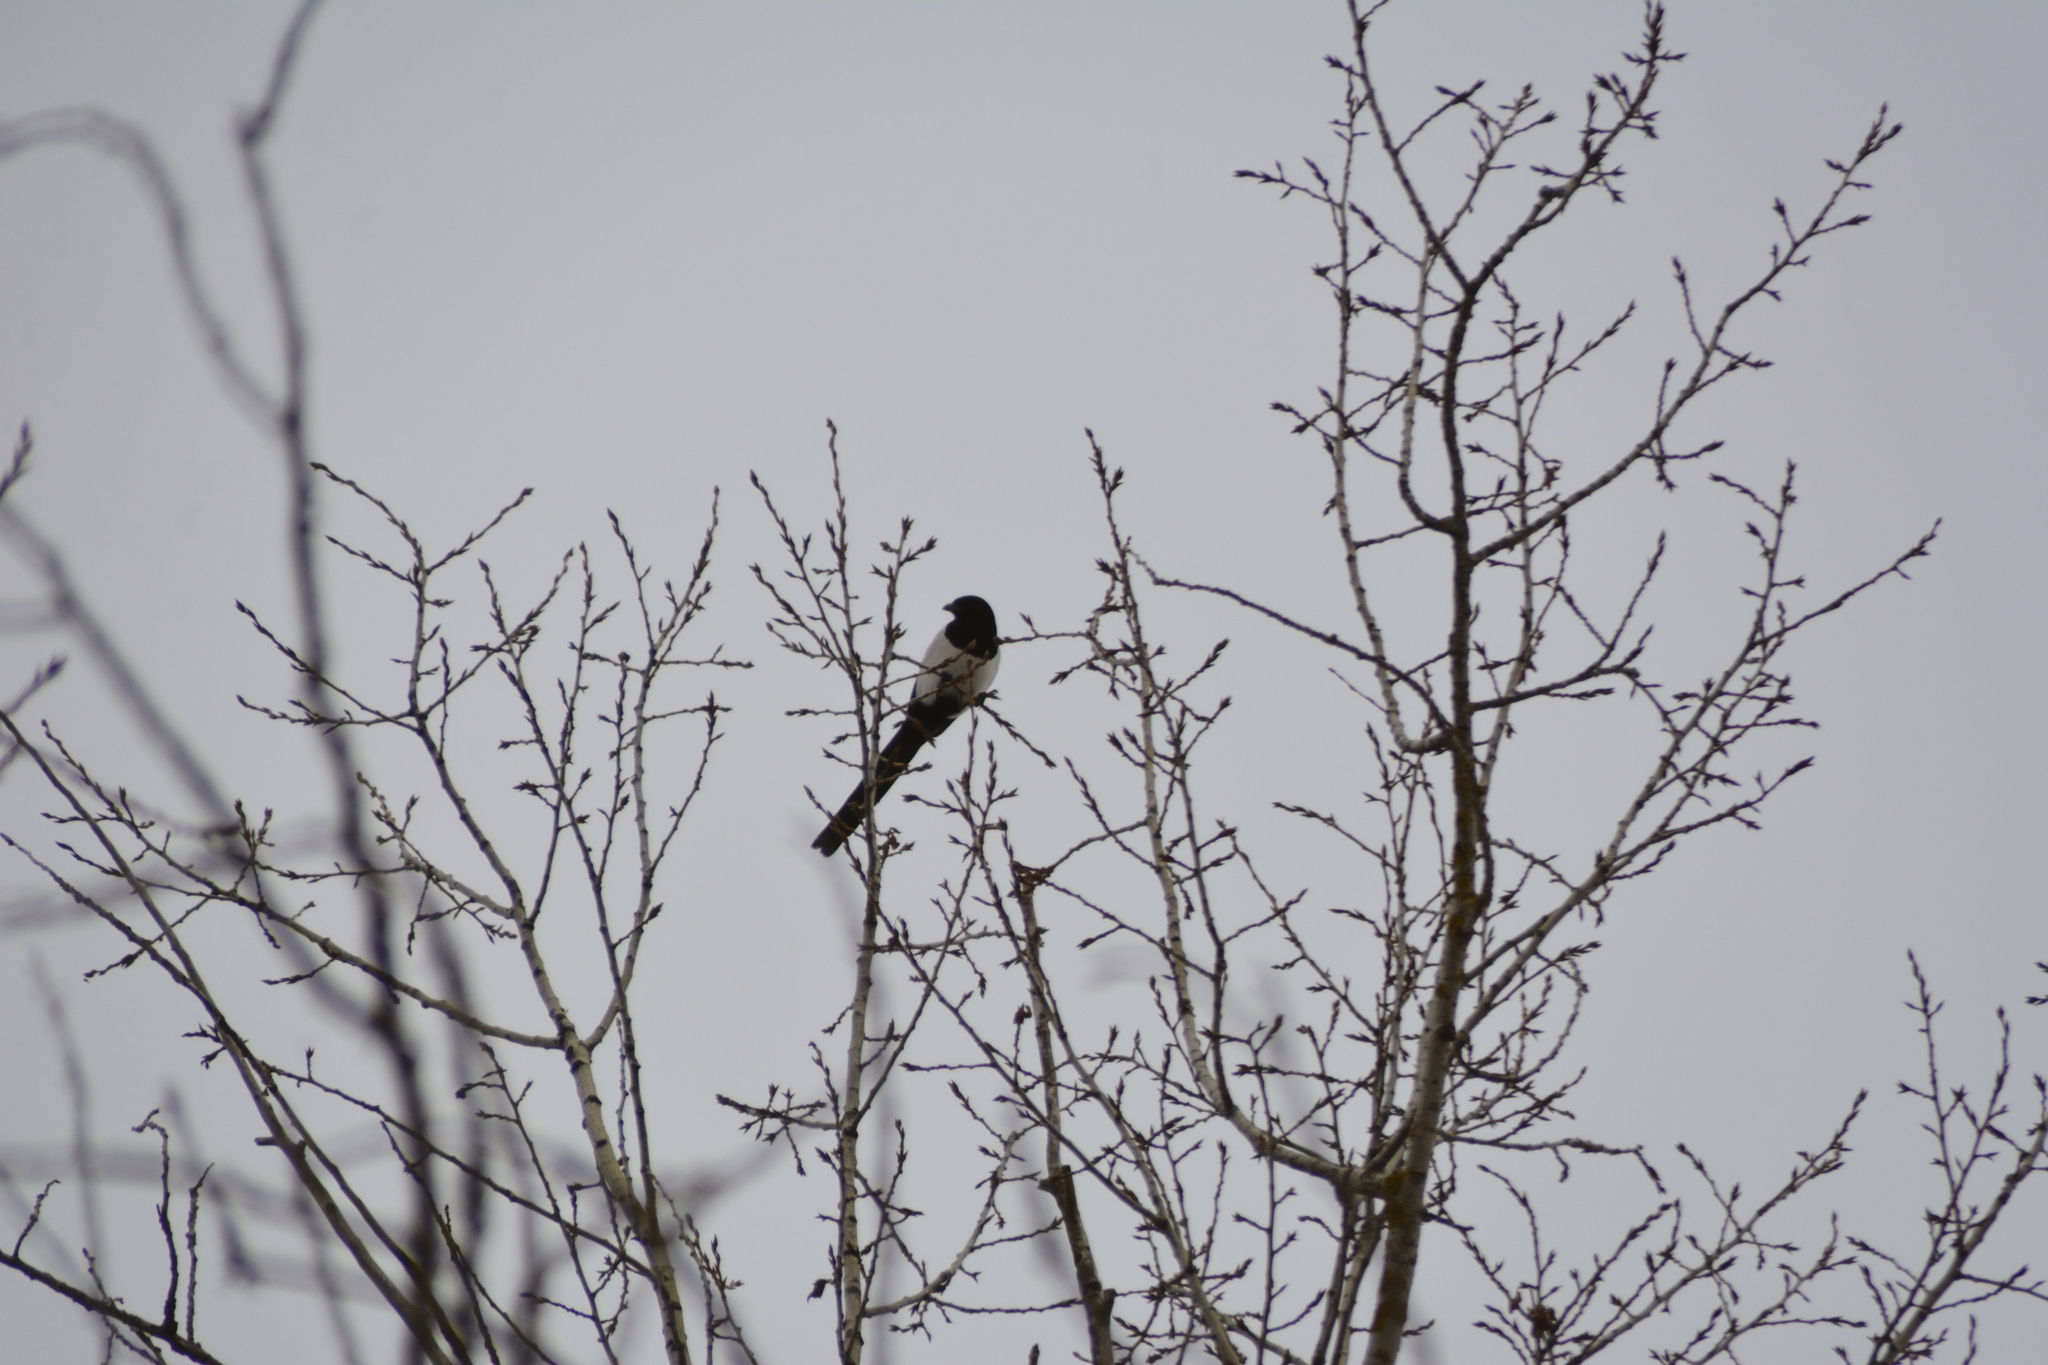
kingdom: Animalia
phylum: Chordata
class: Aves
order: Passeriformes
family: Corvidae
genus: Pica
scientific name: Pica pica
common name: Eurasian magpie
